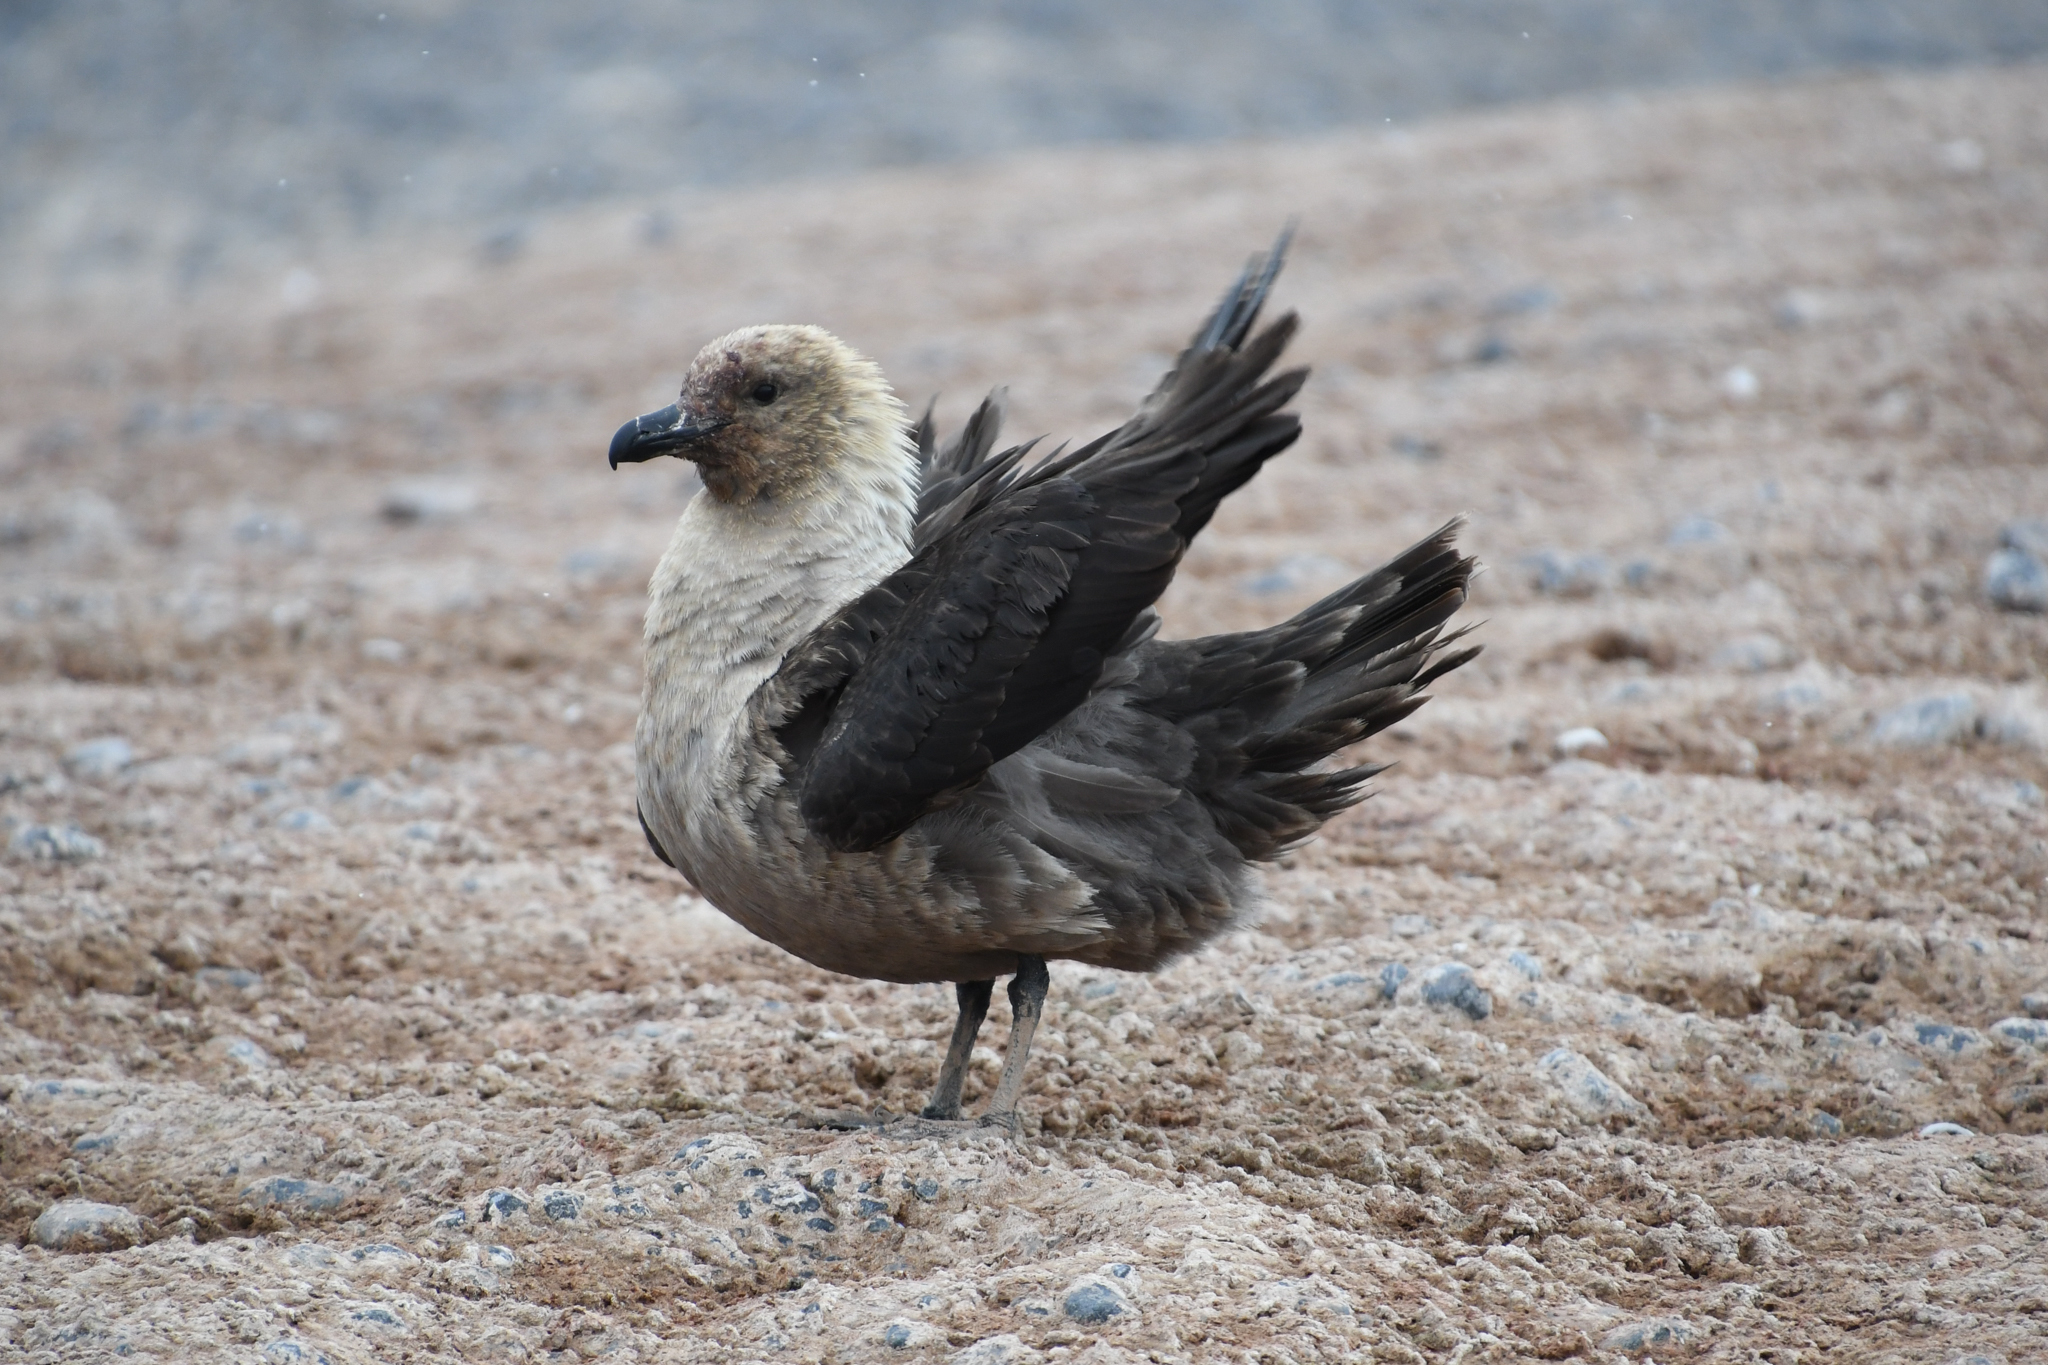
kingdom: Animalia
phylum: Chordata
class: Aves
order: Charadriiformes
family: Stercorariidae
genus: Stercorarius
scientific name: Stercorarius maccormicki
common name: South polar skua
